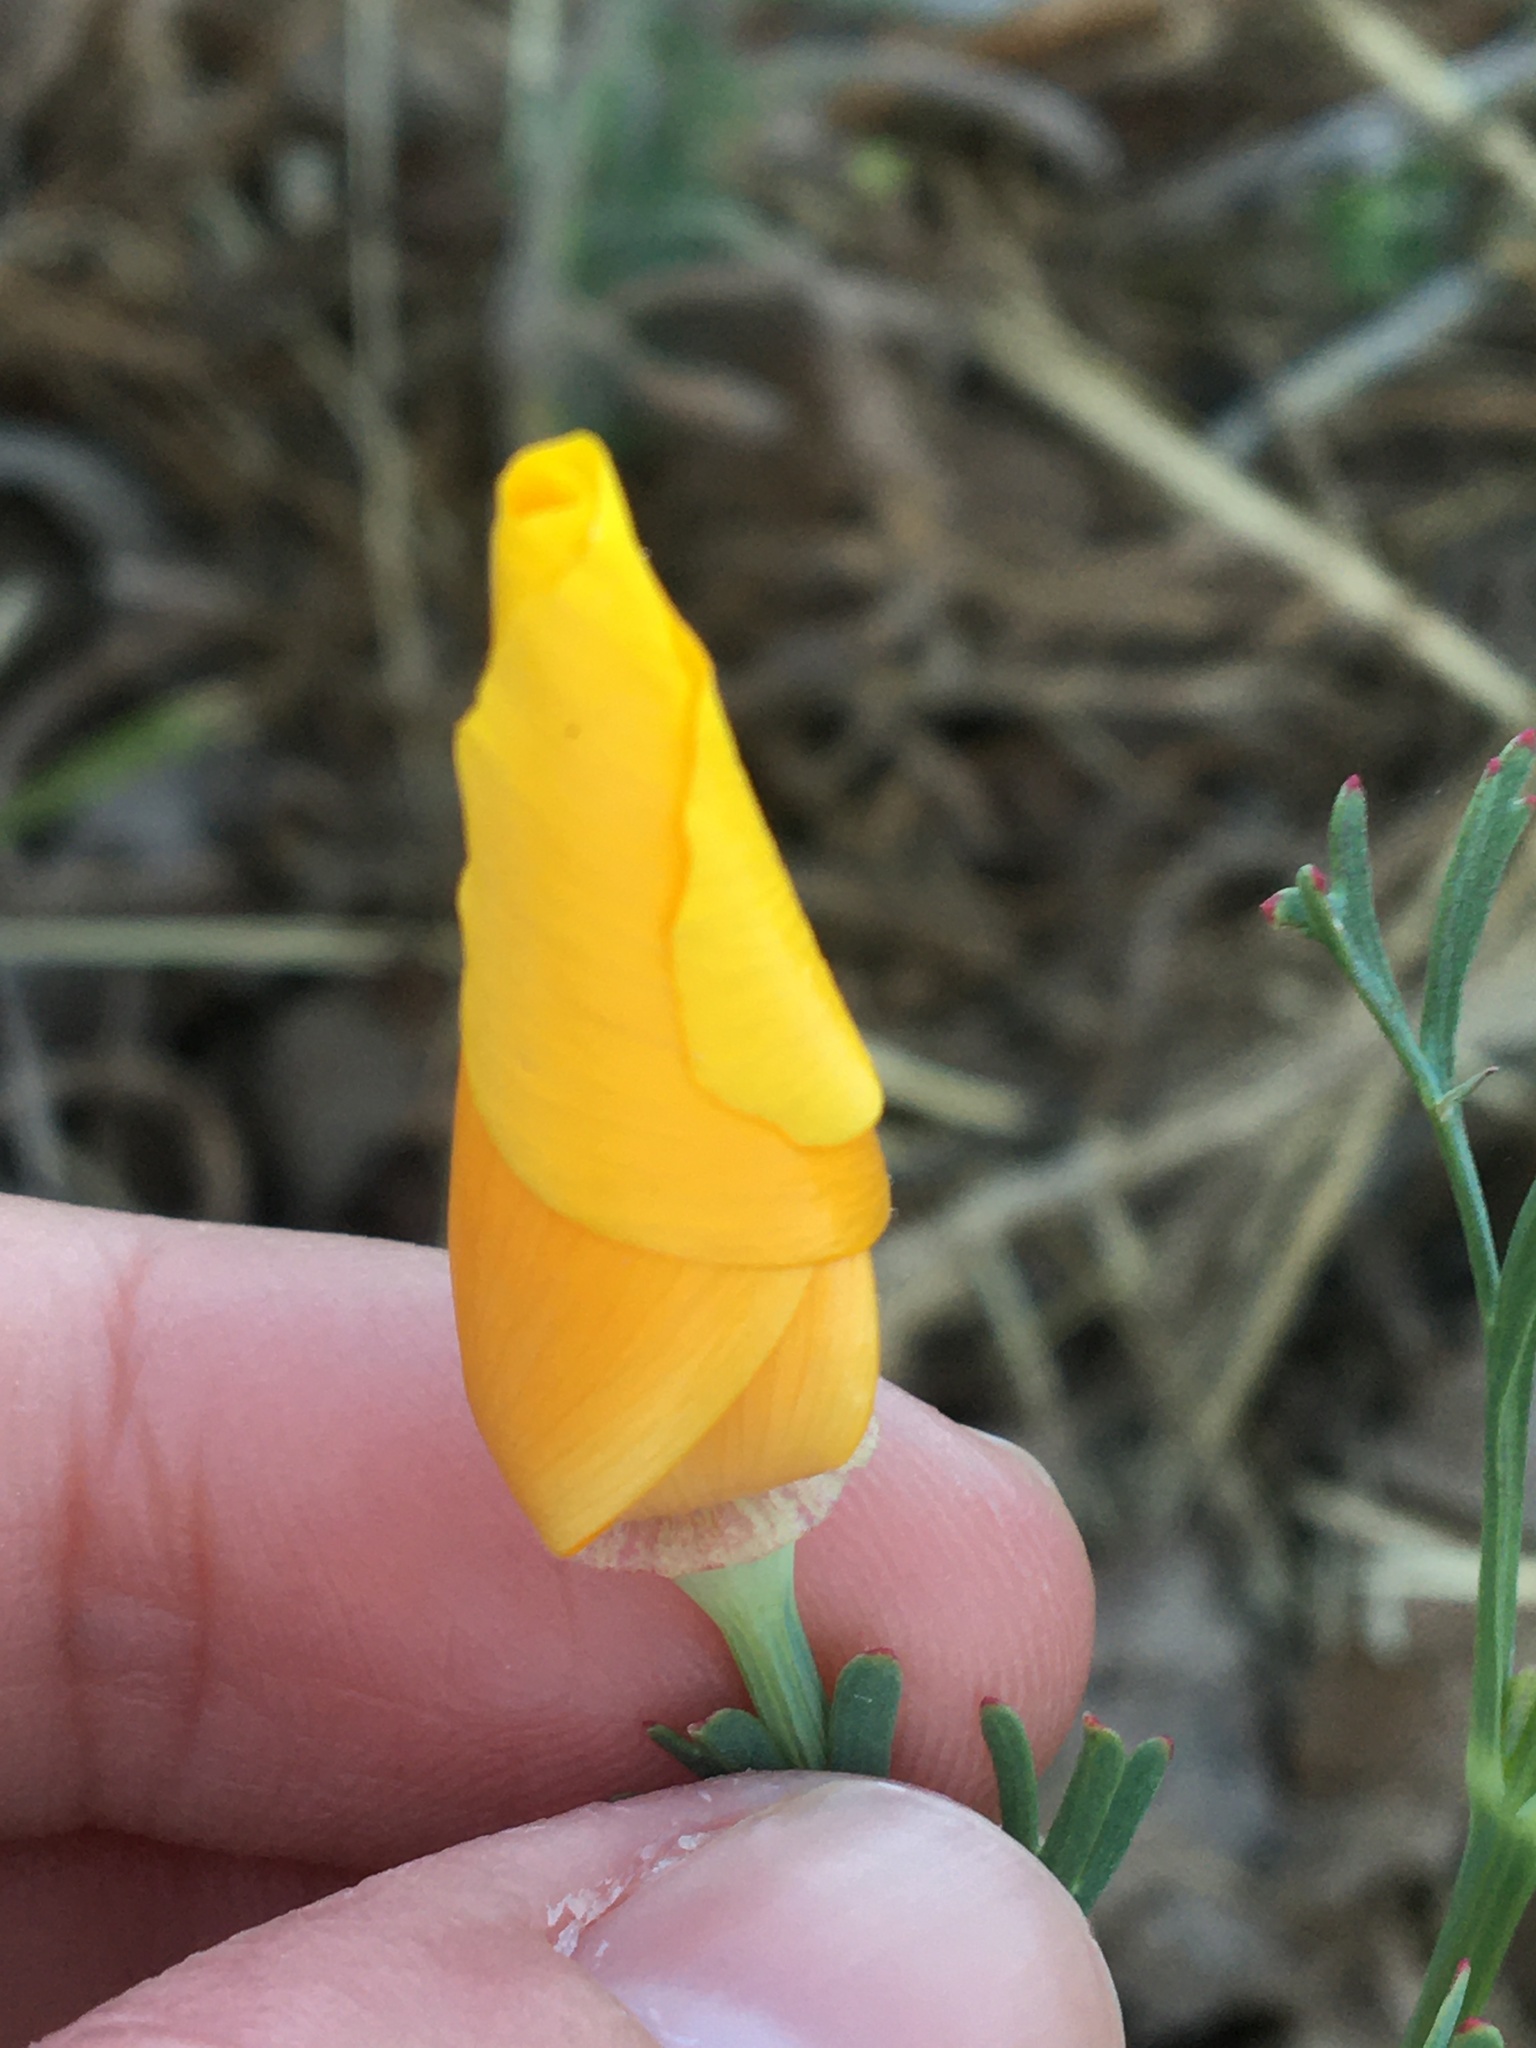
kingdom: Plantae
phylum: Tracheophyta
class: Magnoliopsida
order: Ranunculales
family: Papaveraceae
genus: Eschscholzia
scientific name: Eschscholzia californica
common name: California poppy
